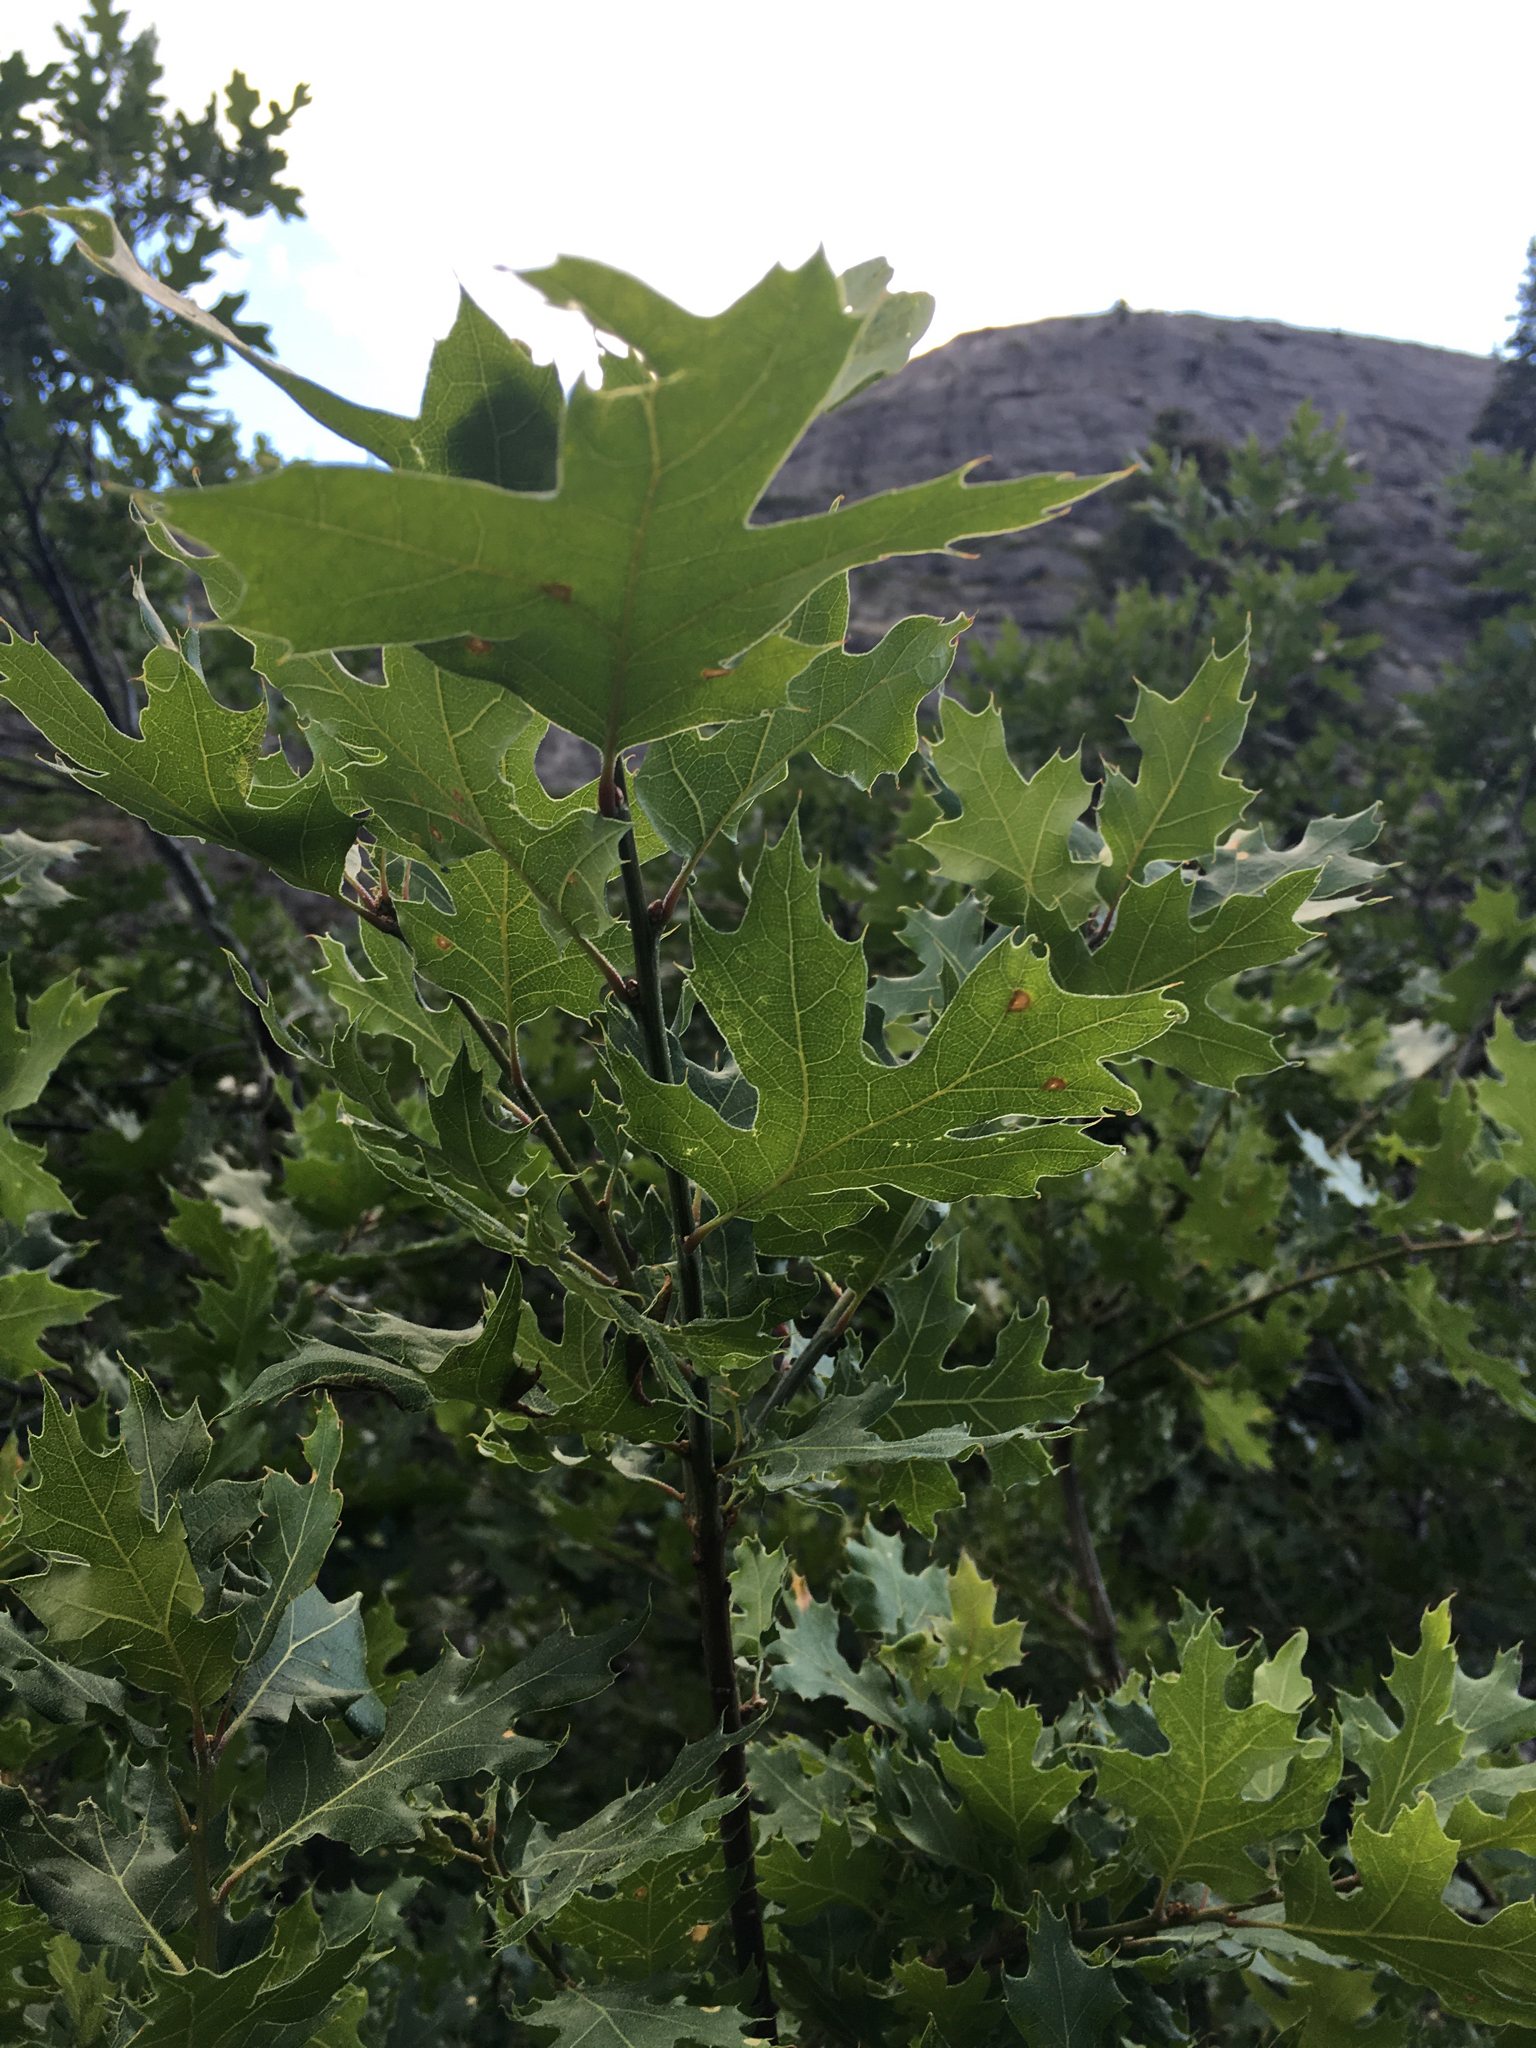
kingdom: Plantae
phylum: Tracheophyta
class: Magnoliopsida
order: Fagales
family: Fagaceae
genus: Quercus
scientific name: Quercus kelloggii
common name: California black oak
